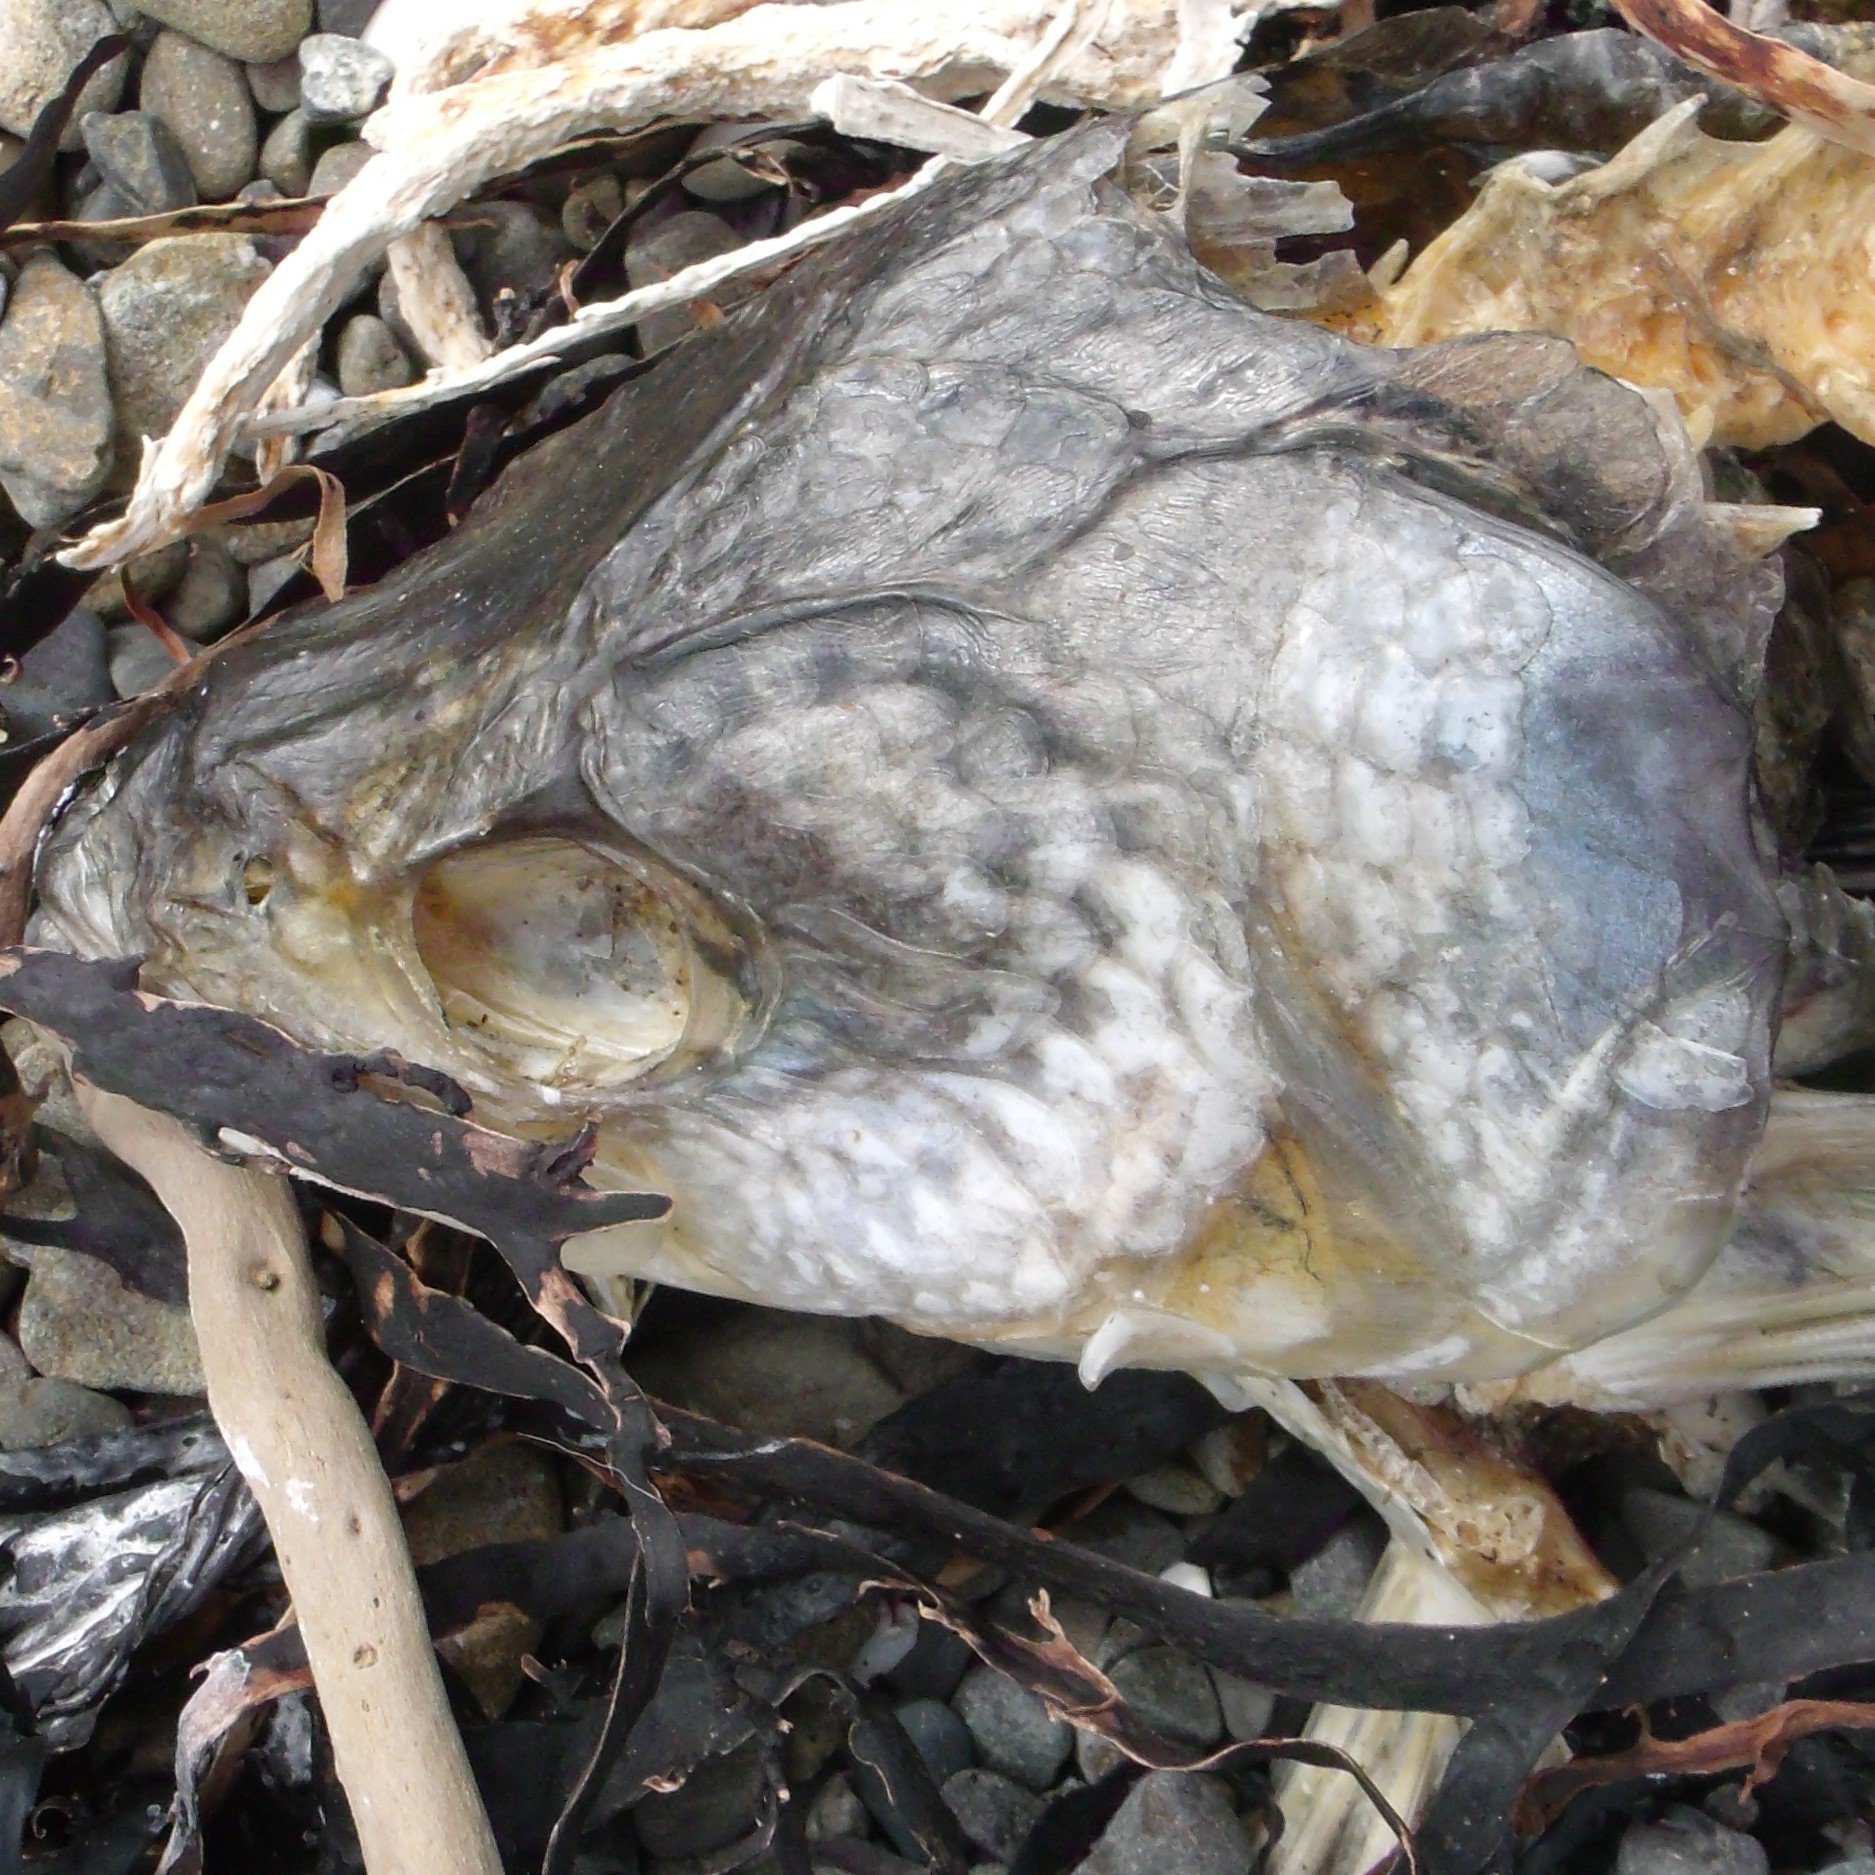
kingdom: Animalia
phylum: Chordata
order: Perciformes
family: Arripidae
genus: Arripis
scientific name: Arripis trutta
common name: Kahawai
